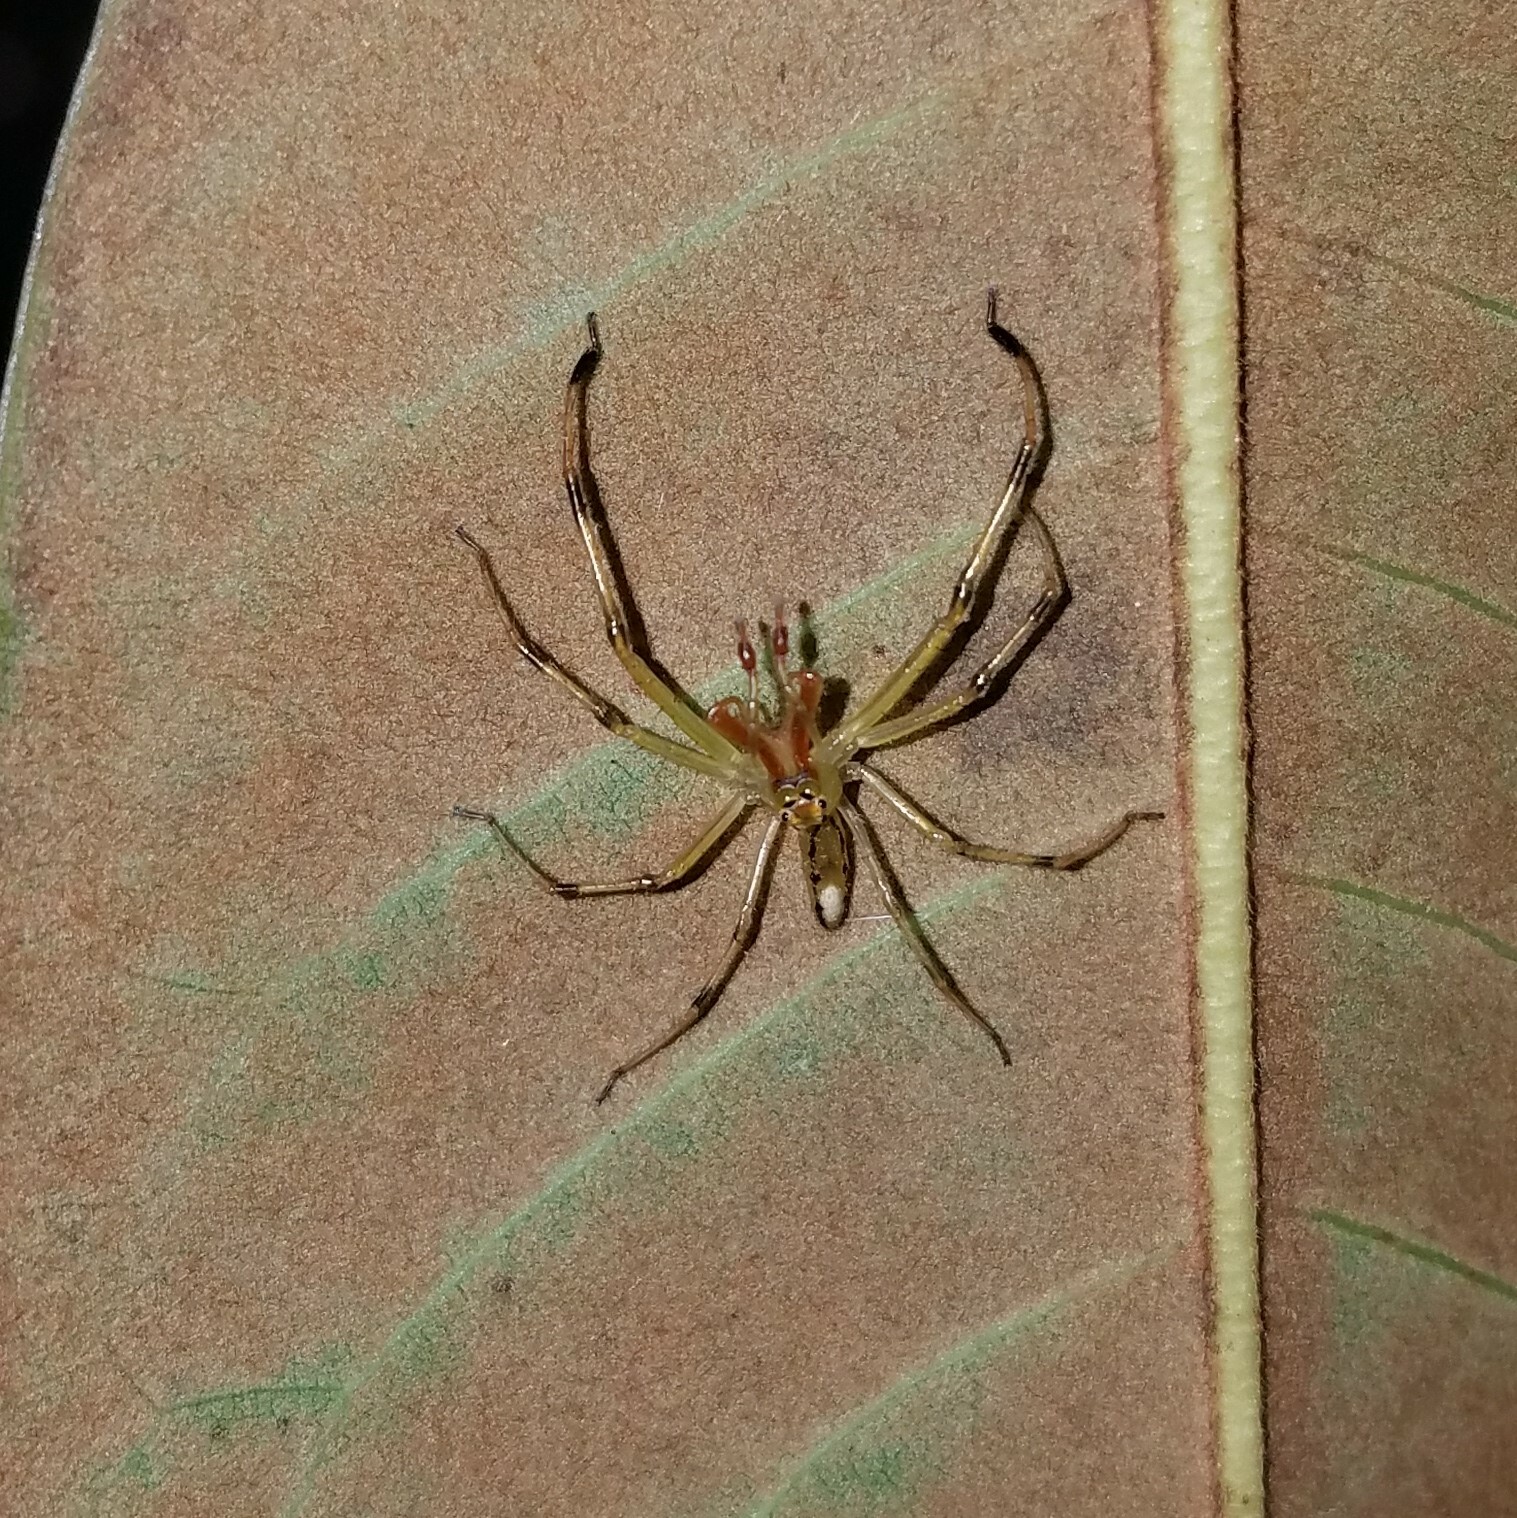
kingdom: Animalia
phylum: Arthropoda
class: Arachnida
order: Araneae
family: Salticidae
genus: Lyssomanes
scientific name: Lyssomanes viridis
